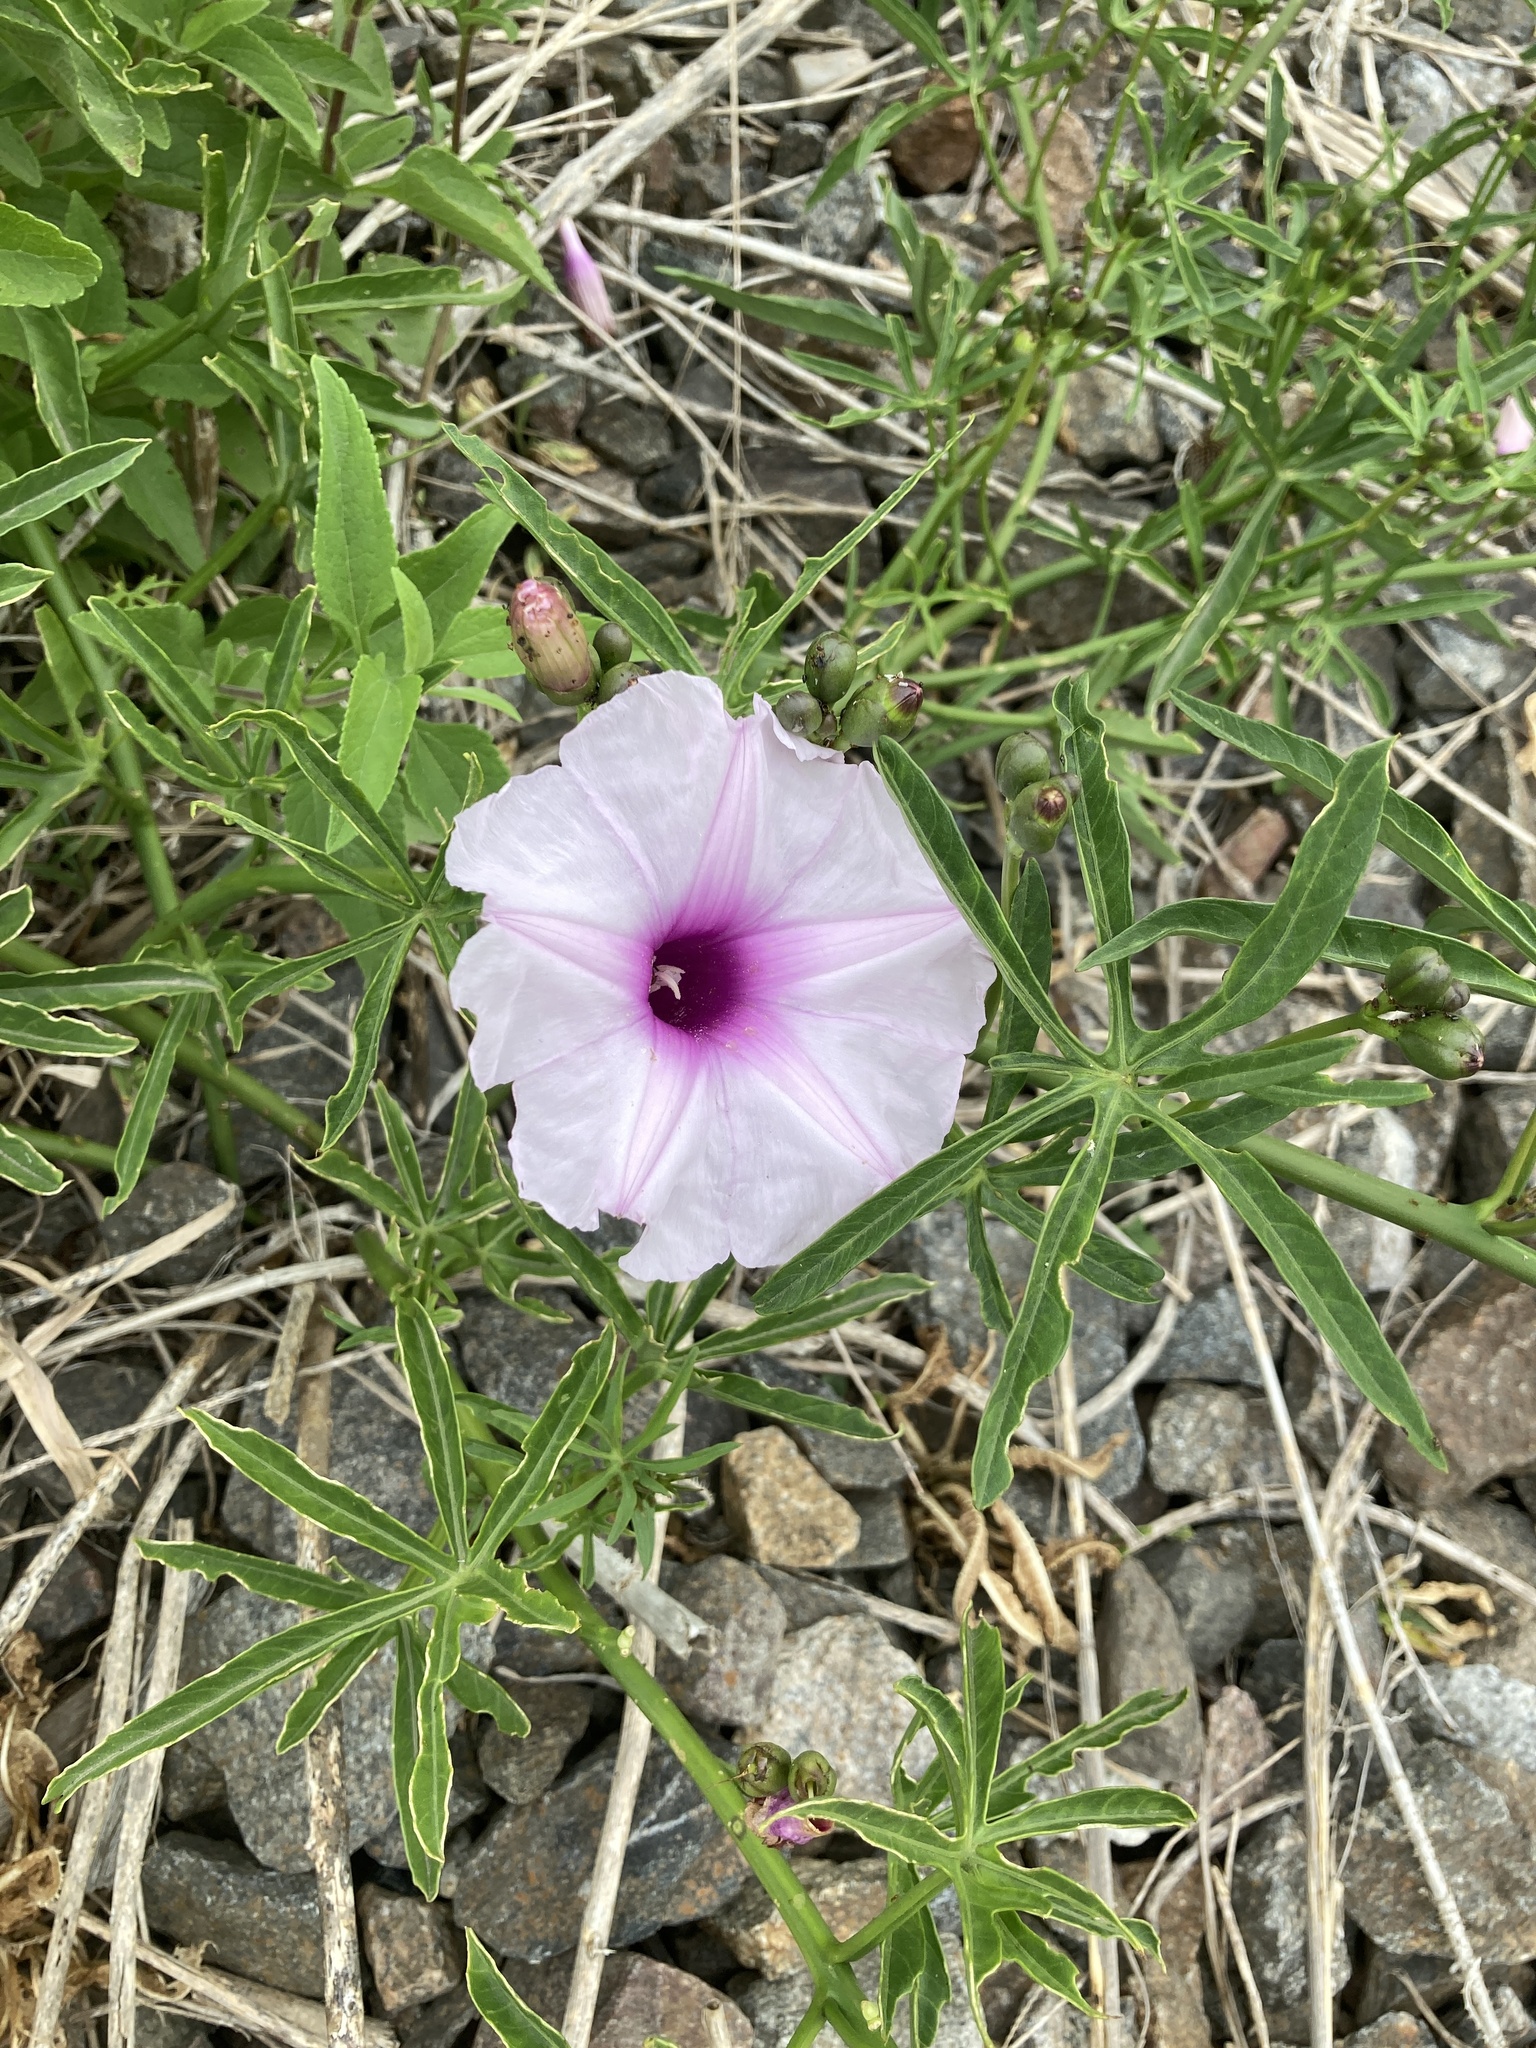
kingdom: Plantae
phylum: Tracheophyta
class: Magnoliopsida
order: Solanales
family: Convolvulaceae
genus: Ipomoea
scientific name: Ipomoea platensis
